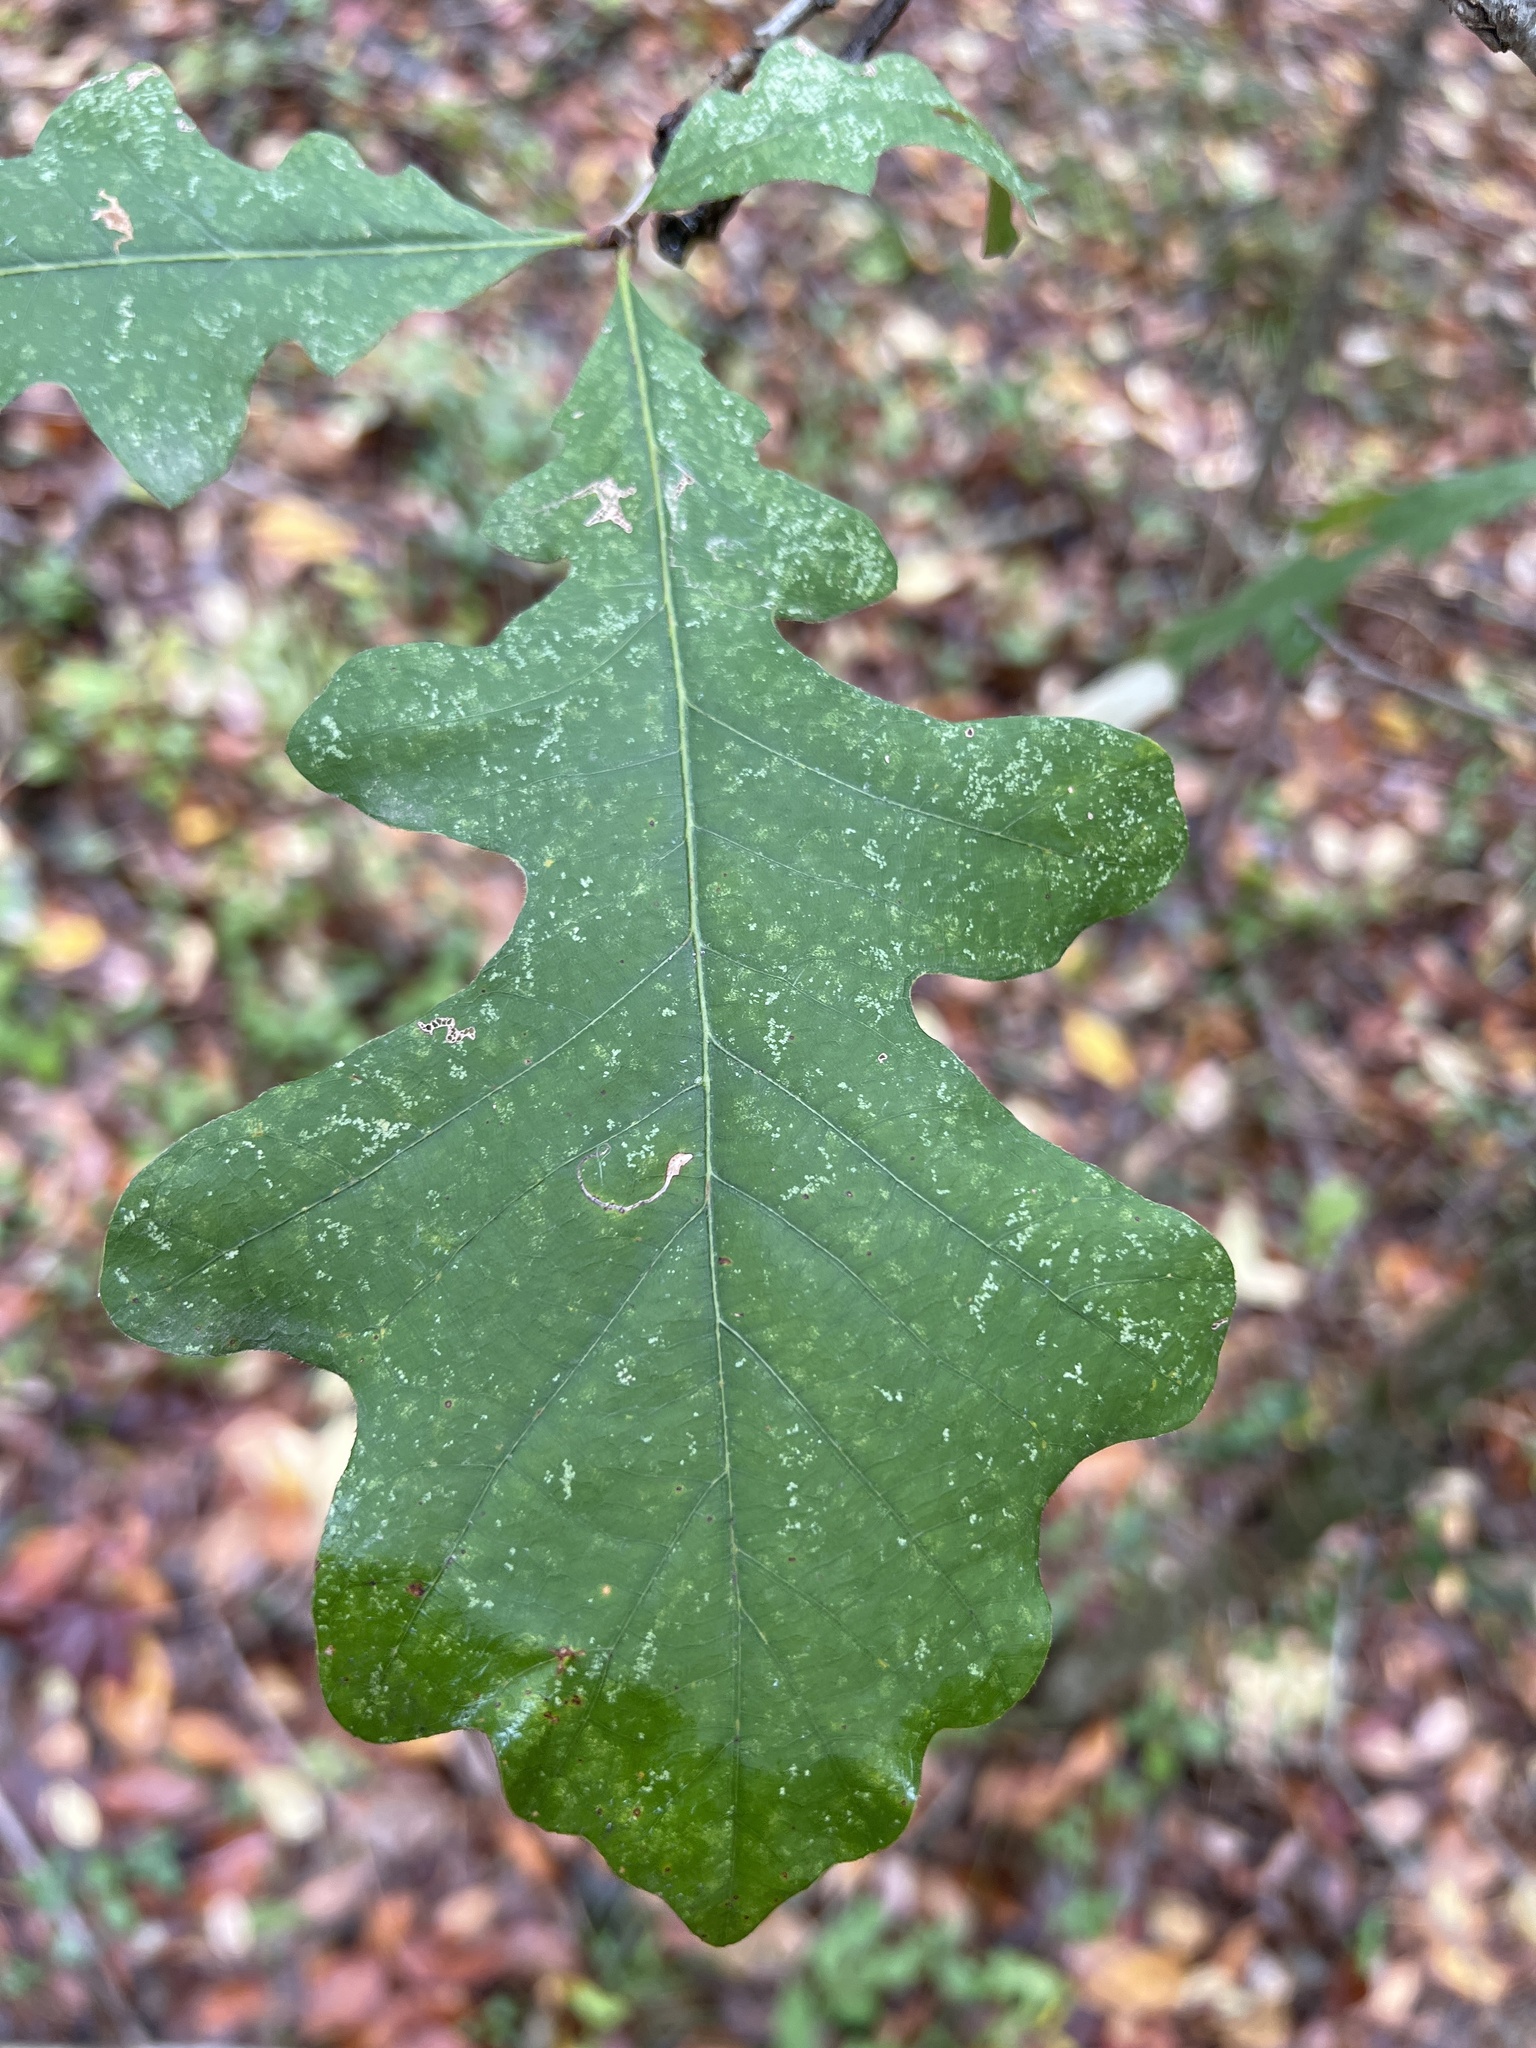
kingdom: Plantae
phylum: Tracheophyta
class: Magnoliopsida
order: Fagales
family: Fagaceae
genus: Quercus
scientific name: Quercus macrocarpa
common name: Bur oak
